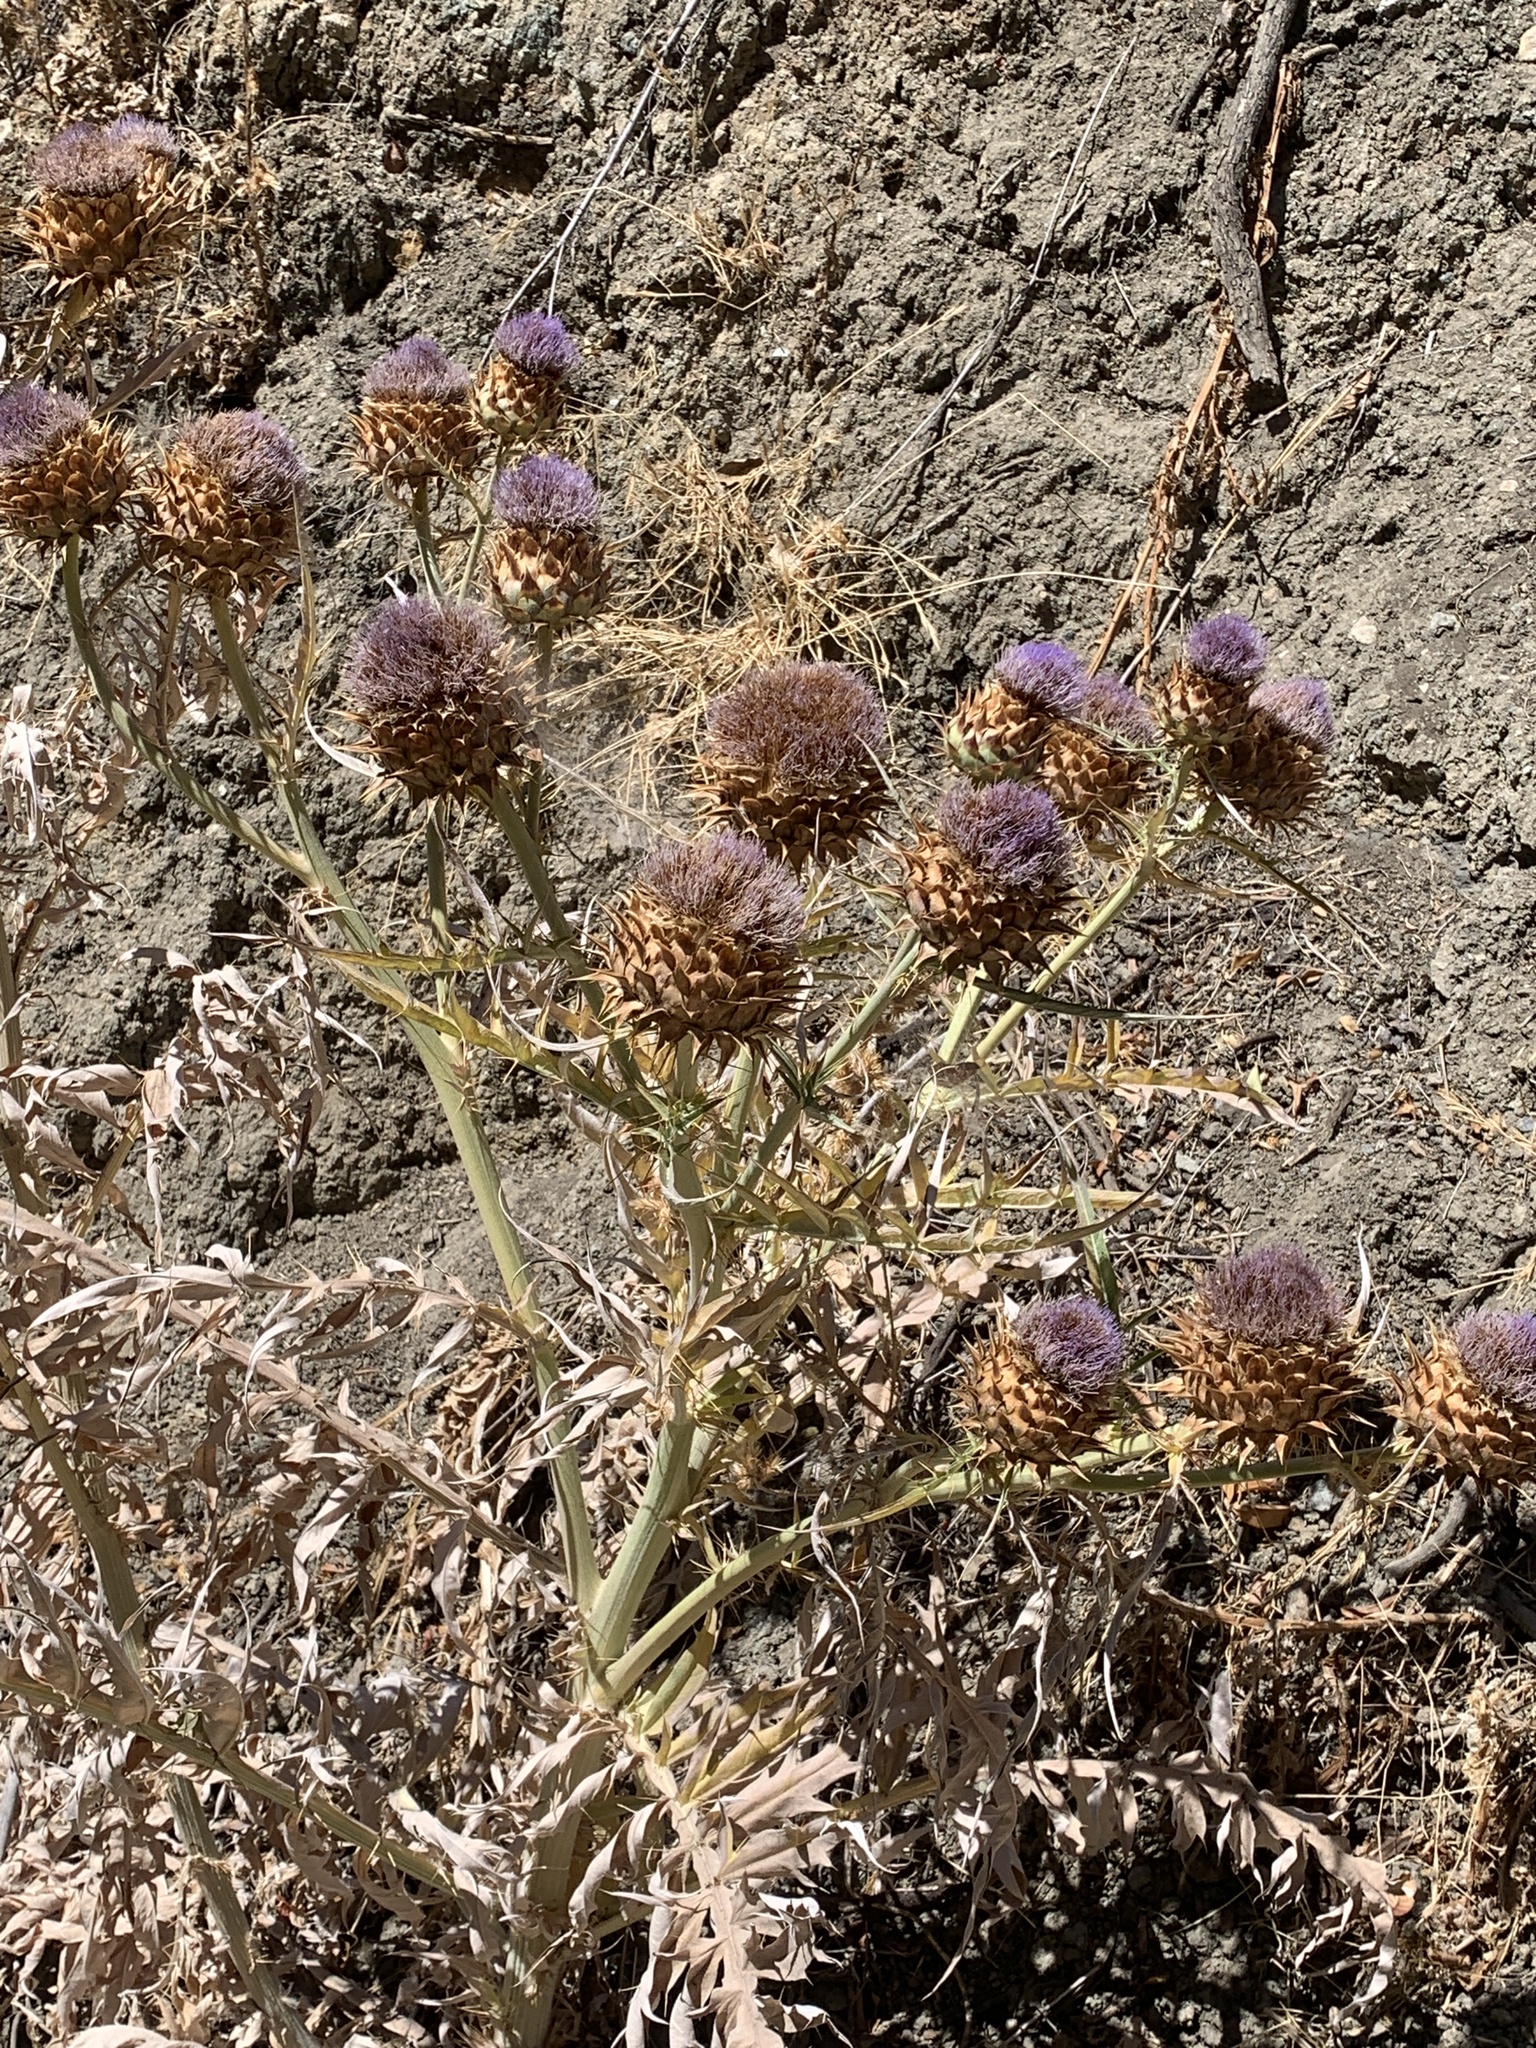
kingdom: Plantae
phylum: Tracheophyta
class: Magnoliopsida
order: Asterales
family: Asteraceae
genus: Cynara
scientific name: Cynara cardunculus
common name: Globe artichoke
